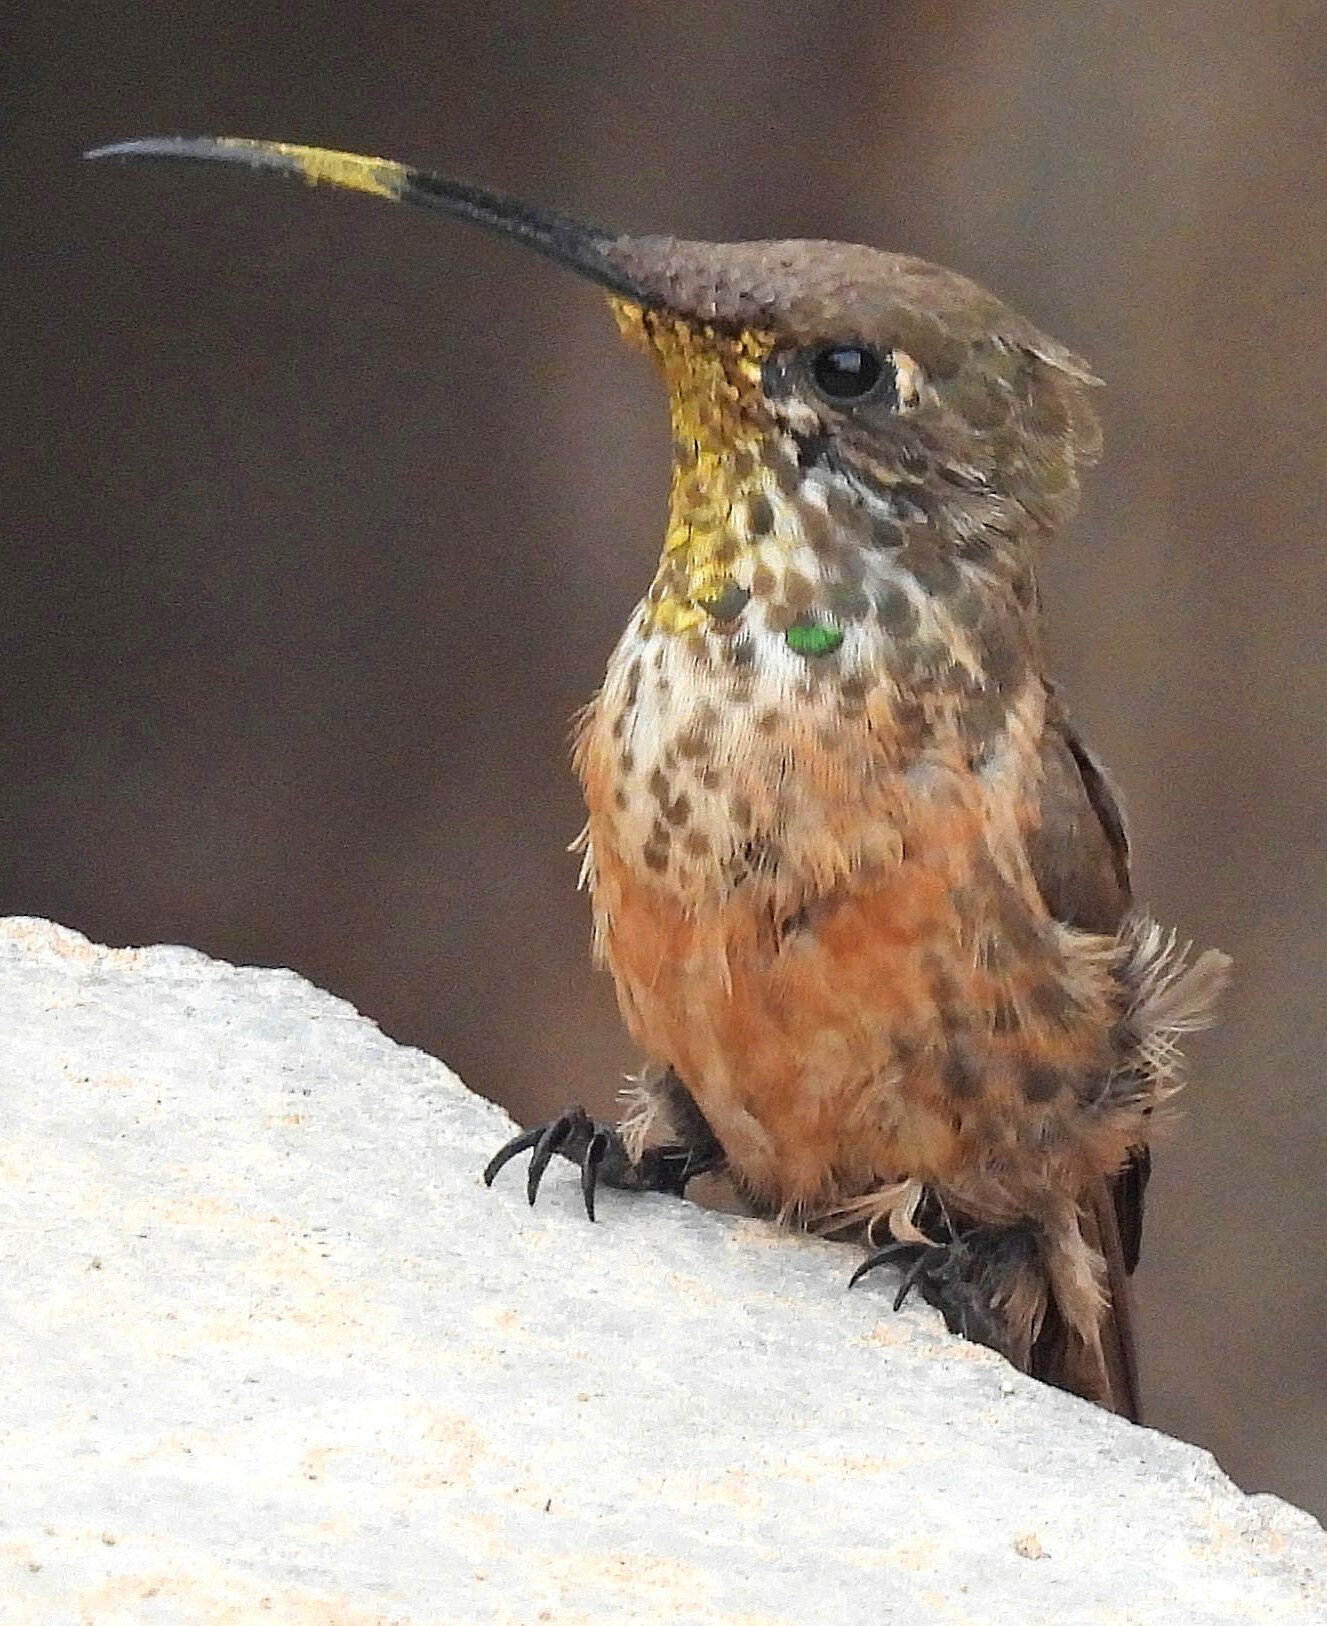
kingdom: Animalia
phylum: Chordata
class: Aves
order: Apodiformes
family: Trochilidae
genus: Oreotrochilus
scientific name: Oreotrochilus adela
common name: Wedge-tailed hillstar
